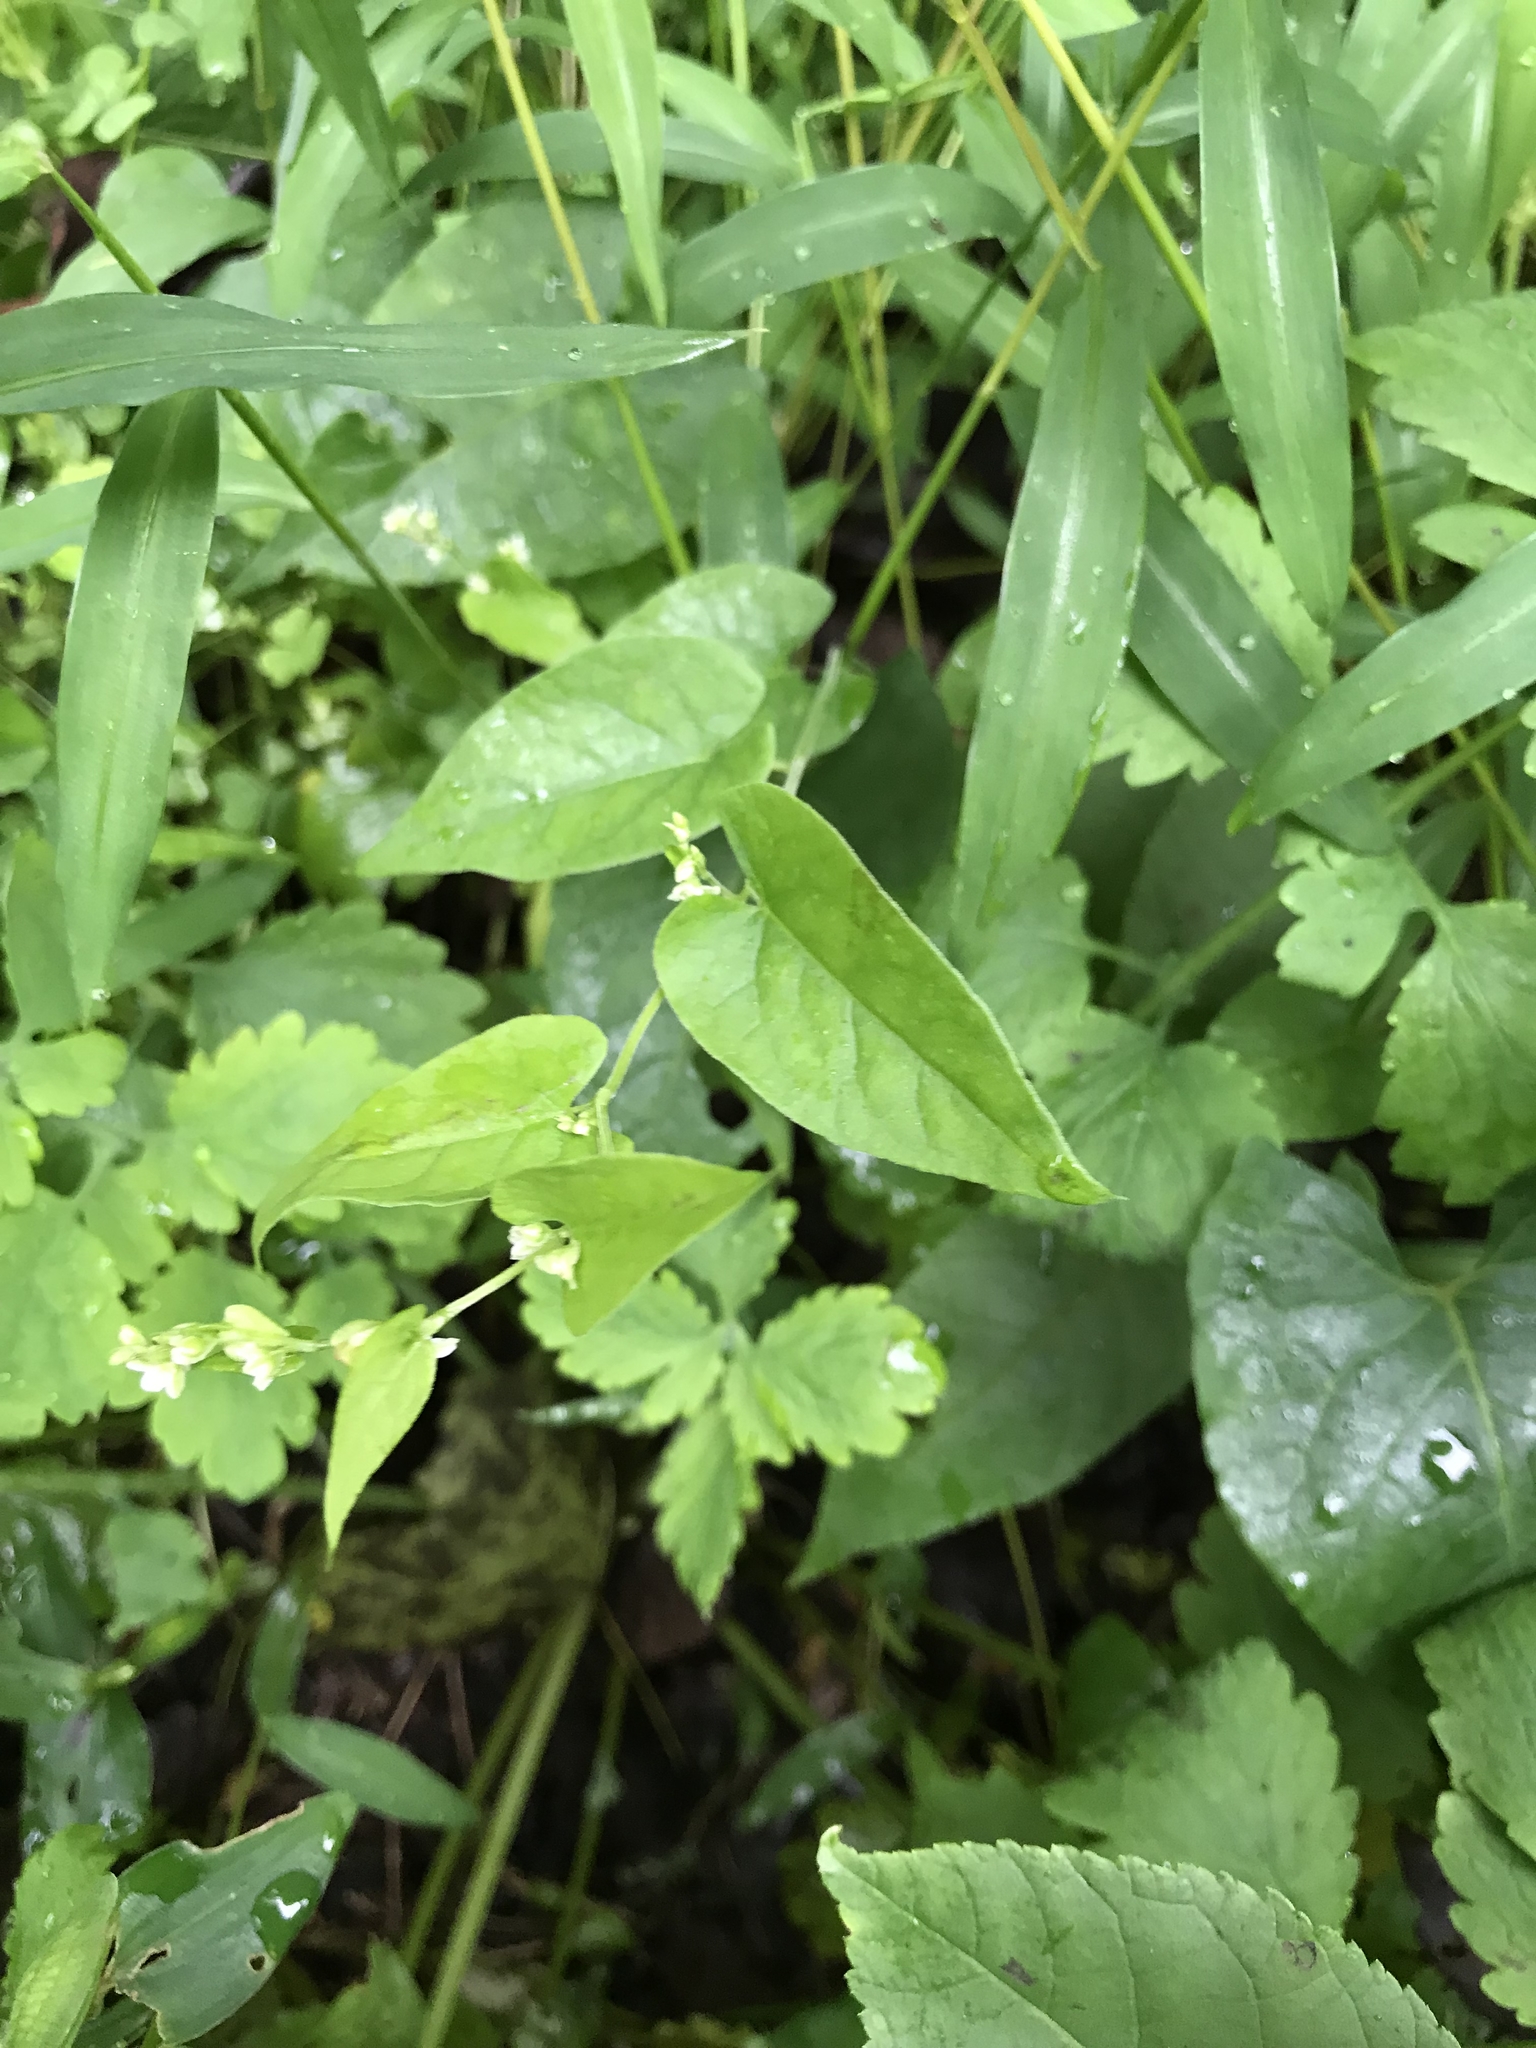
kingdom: Plantae
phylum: Tracheophyta
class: Magnoliopsida
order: Caryophyllales
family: Polygonaceae
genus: Fallopia
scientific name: Fallopia scandens
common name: Climbing false buckwheat
